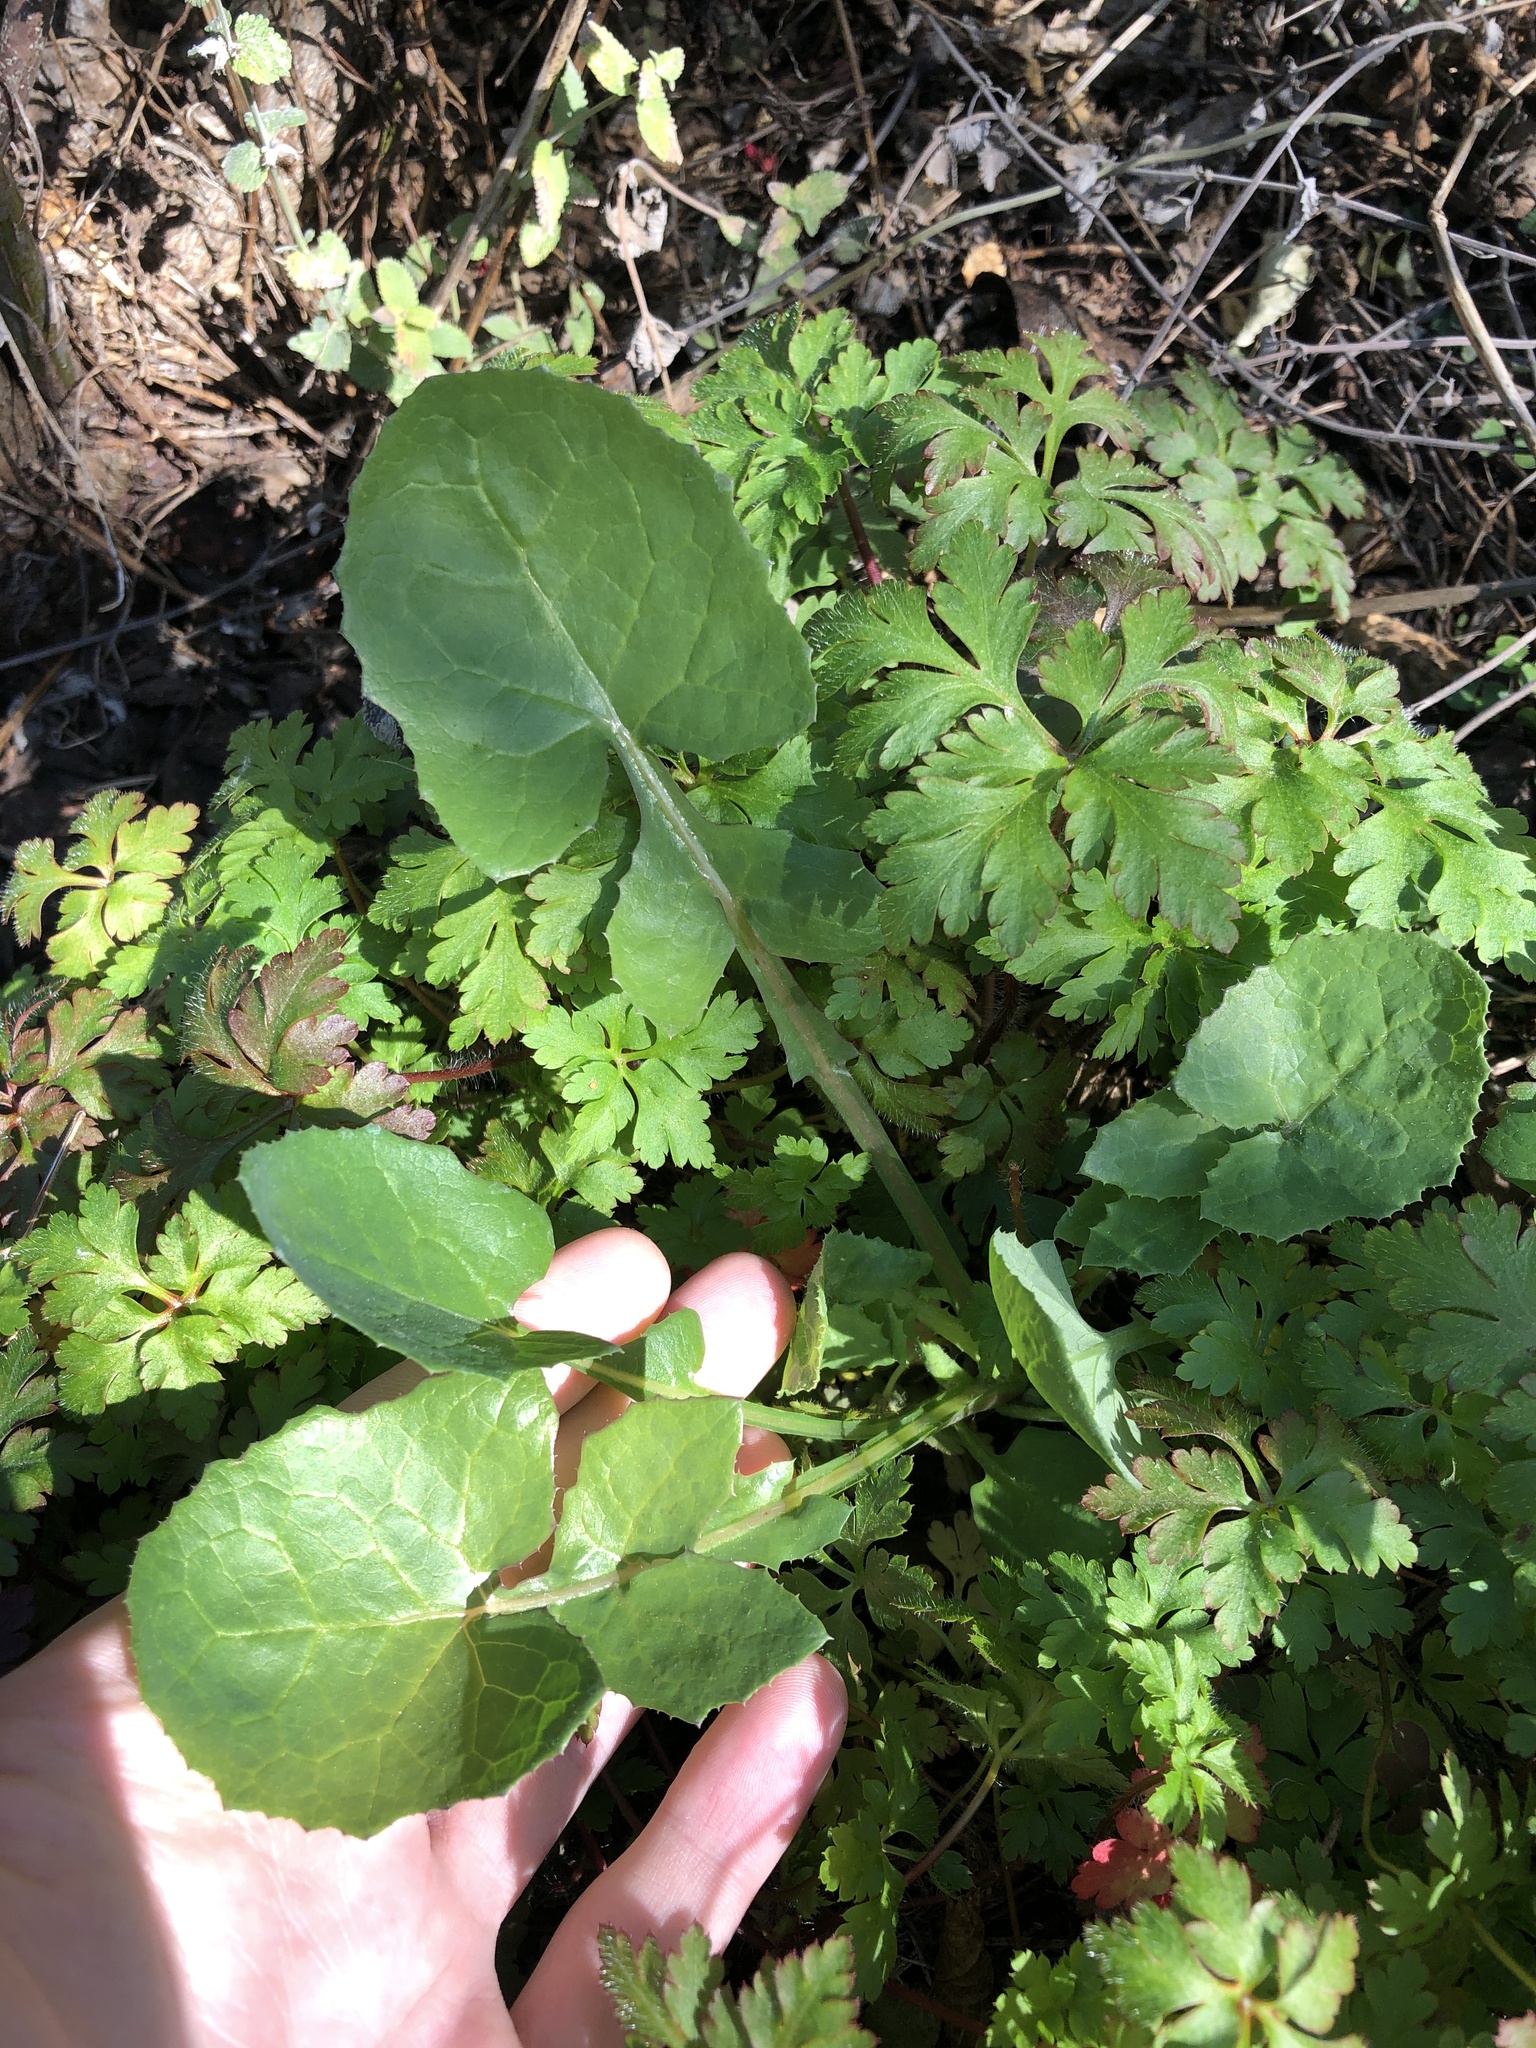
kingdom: Plantae
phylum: Tracheophyta
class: Magnoliopsida
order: Asterales
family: Asteraceae
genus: Sonchus
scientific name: Sonchus oleraceus
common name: Common sowthistle
